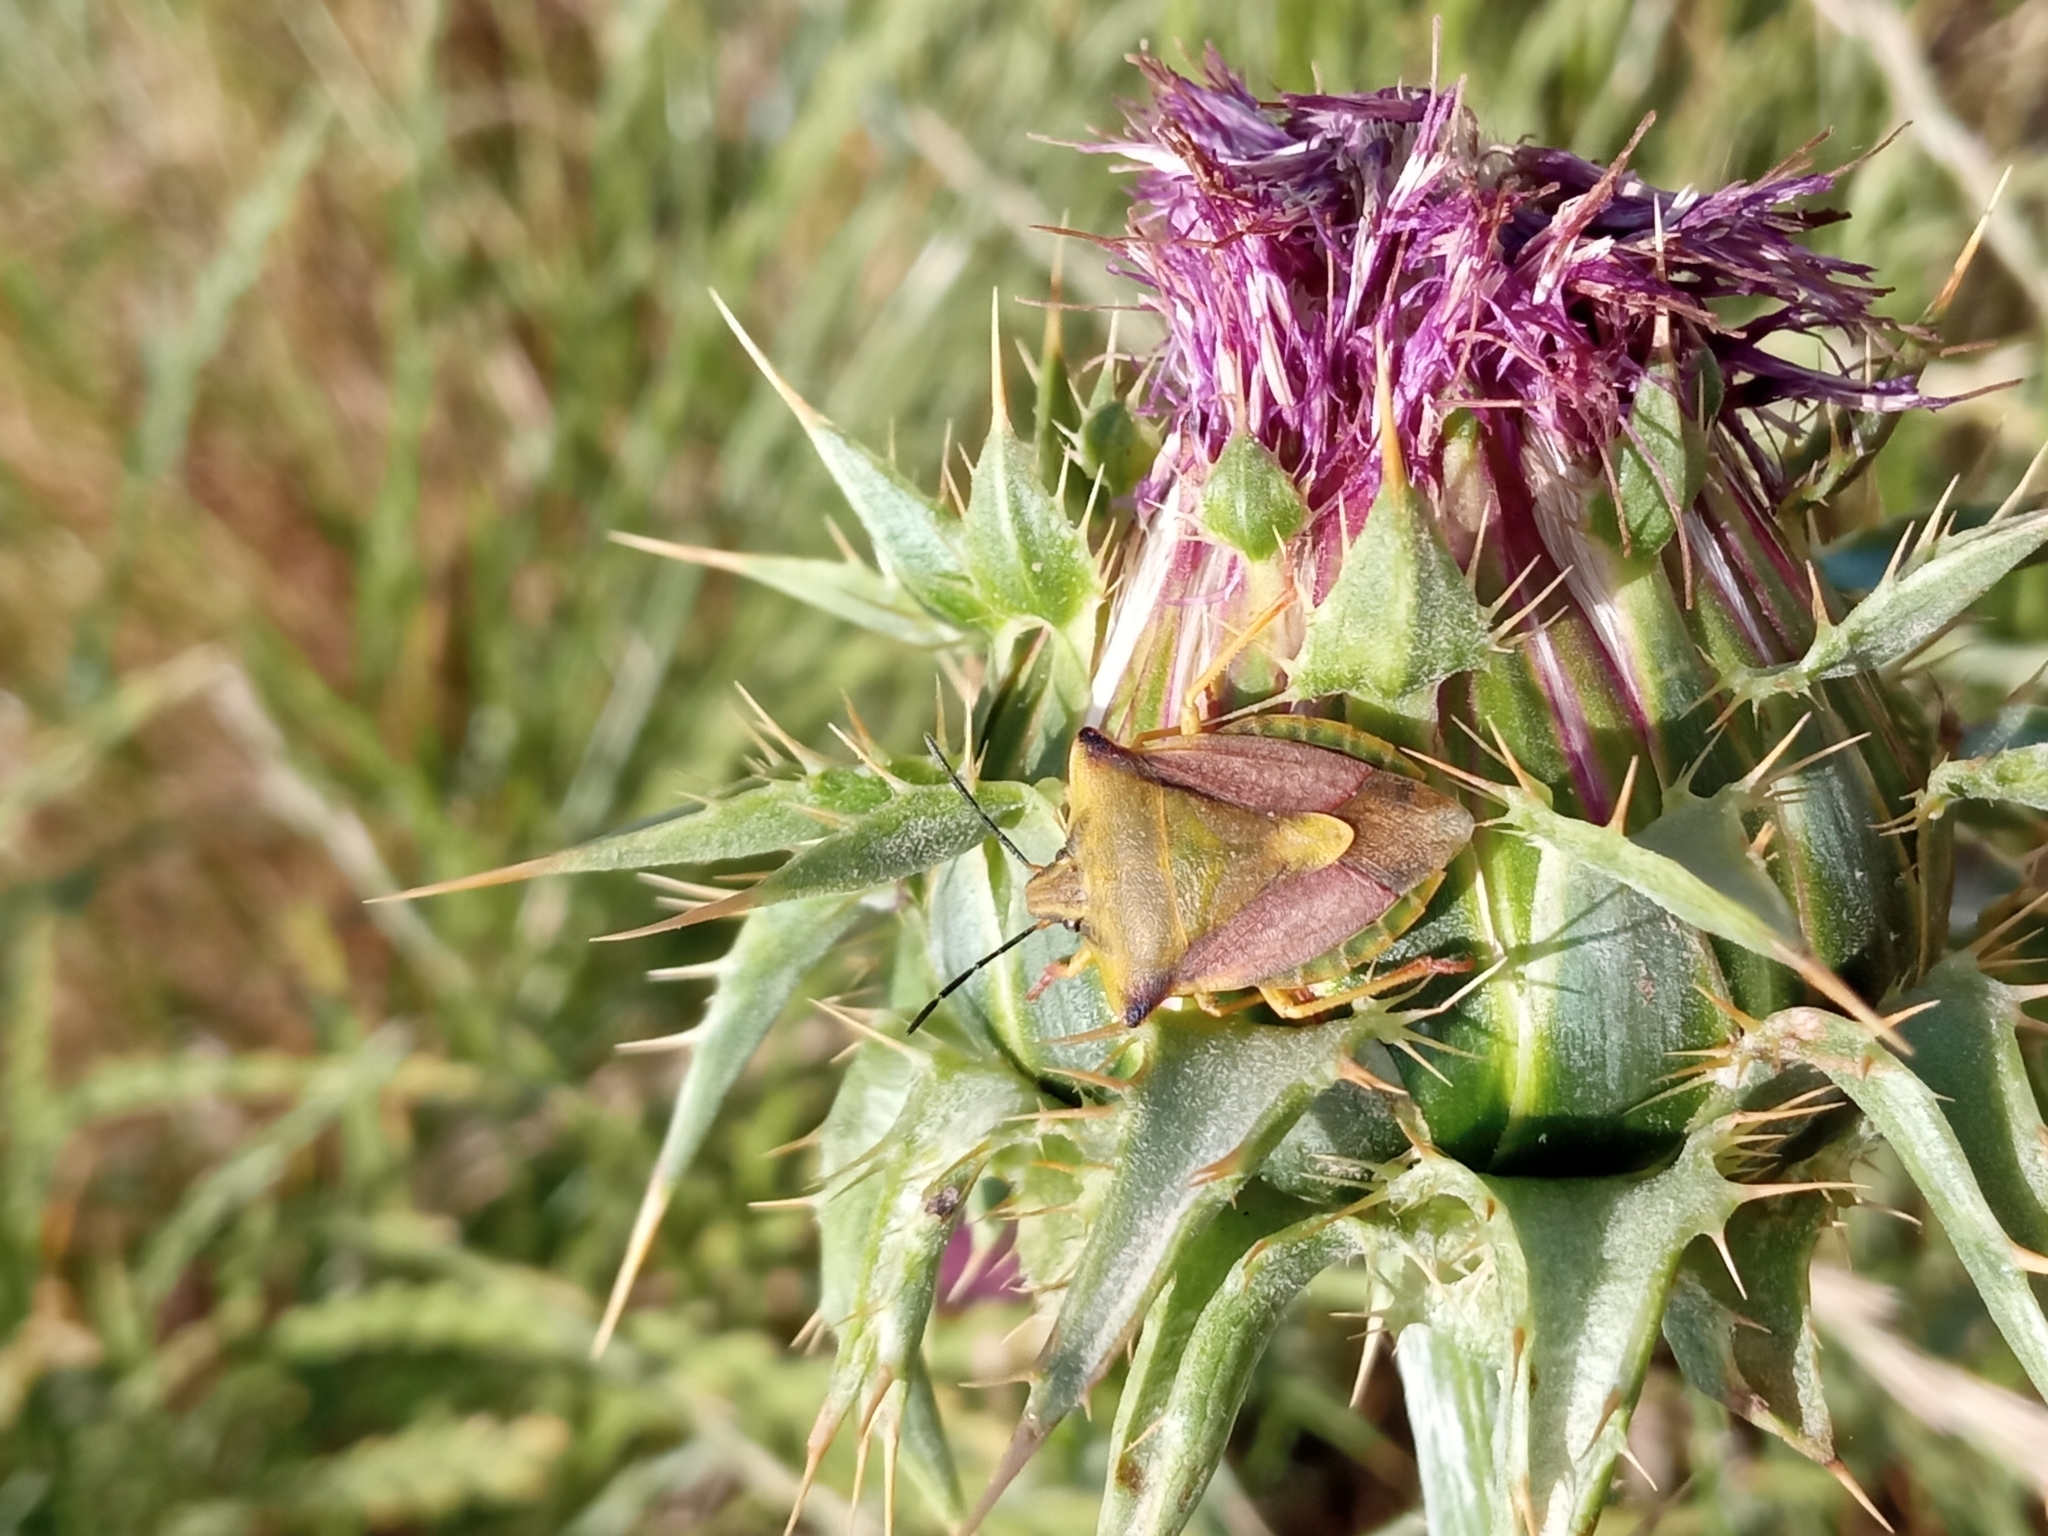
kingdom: Animalia
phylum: Arthropoda
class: Insecta
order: Hemiptera
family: Pentatomidae
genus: Carpocoris
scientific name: Carpocoris fuscispinus
